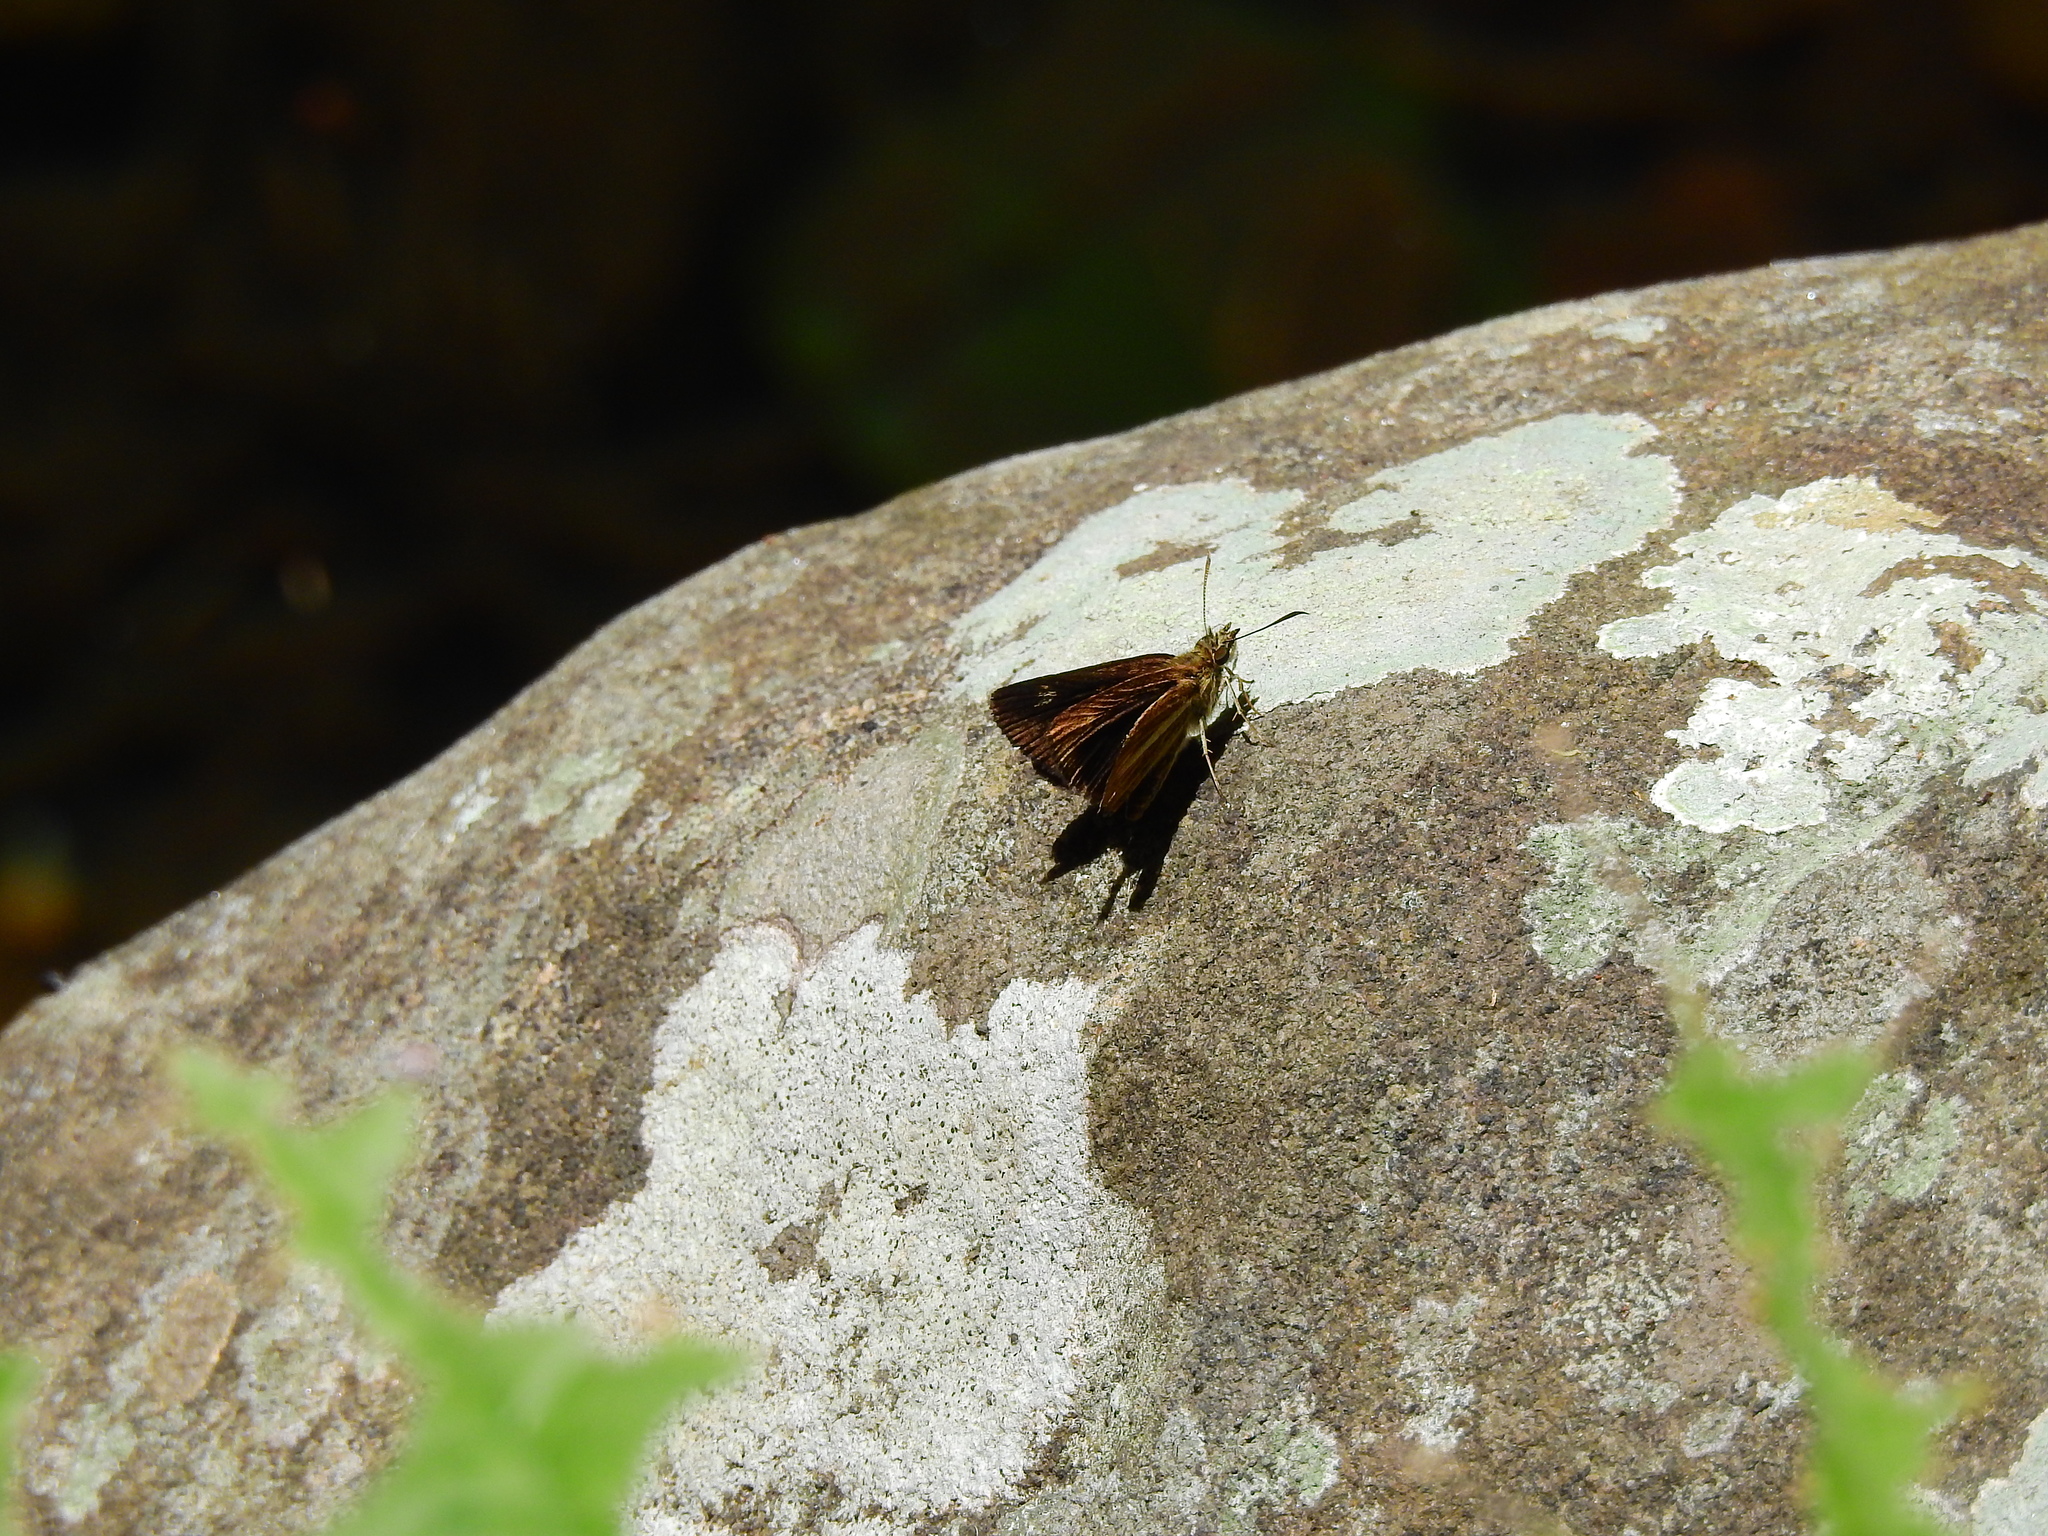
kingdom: Animalia
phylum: Arthropoda
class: Insecta
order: Lepidoptera
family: Hesperiidae
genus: Baracus
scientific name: Baracus vittatus
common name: Hedge-hopper
